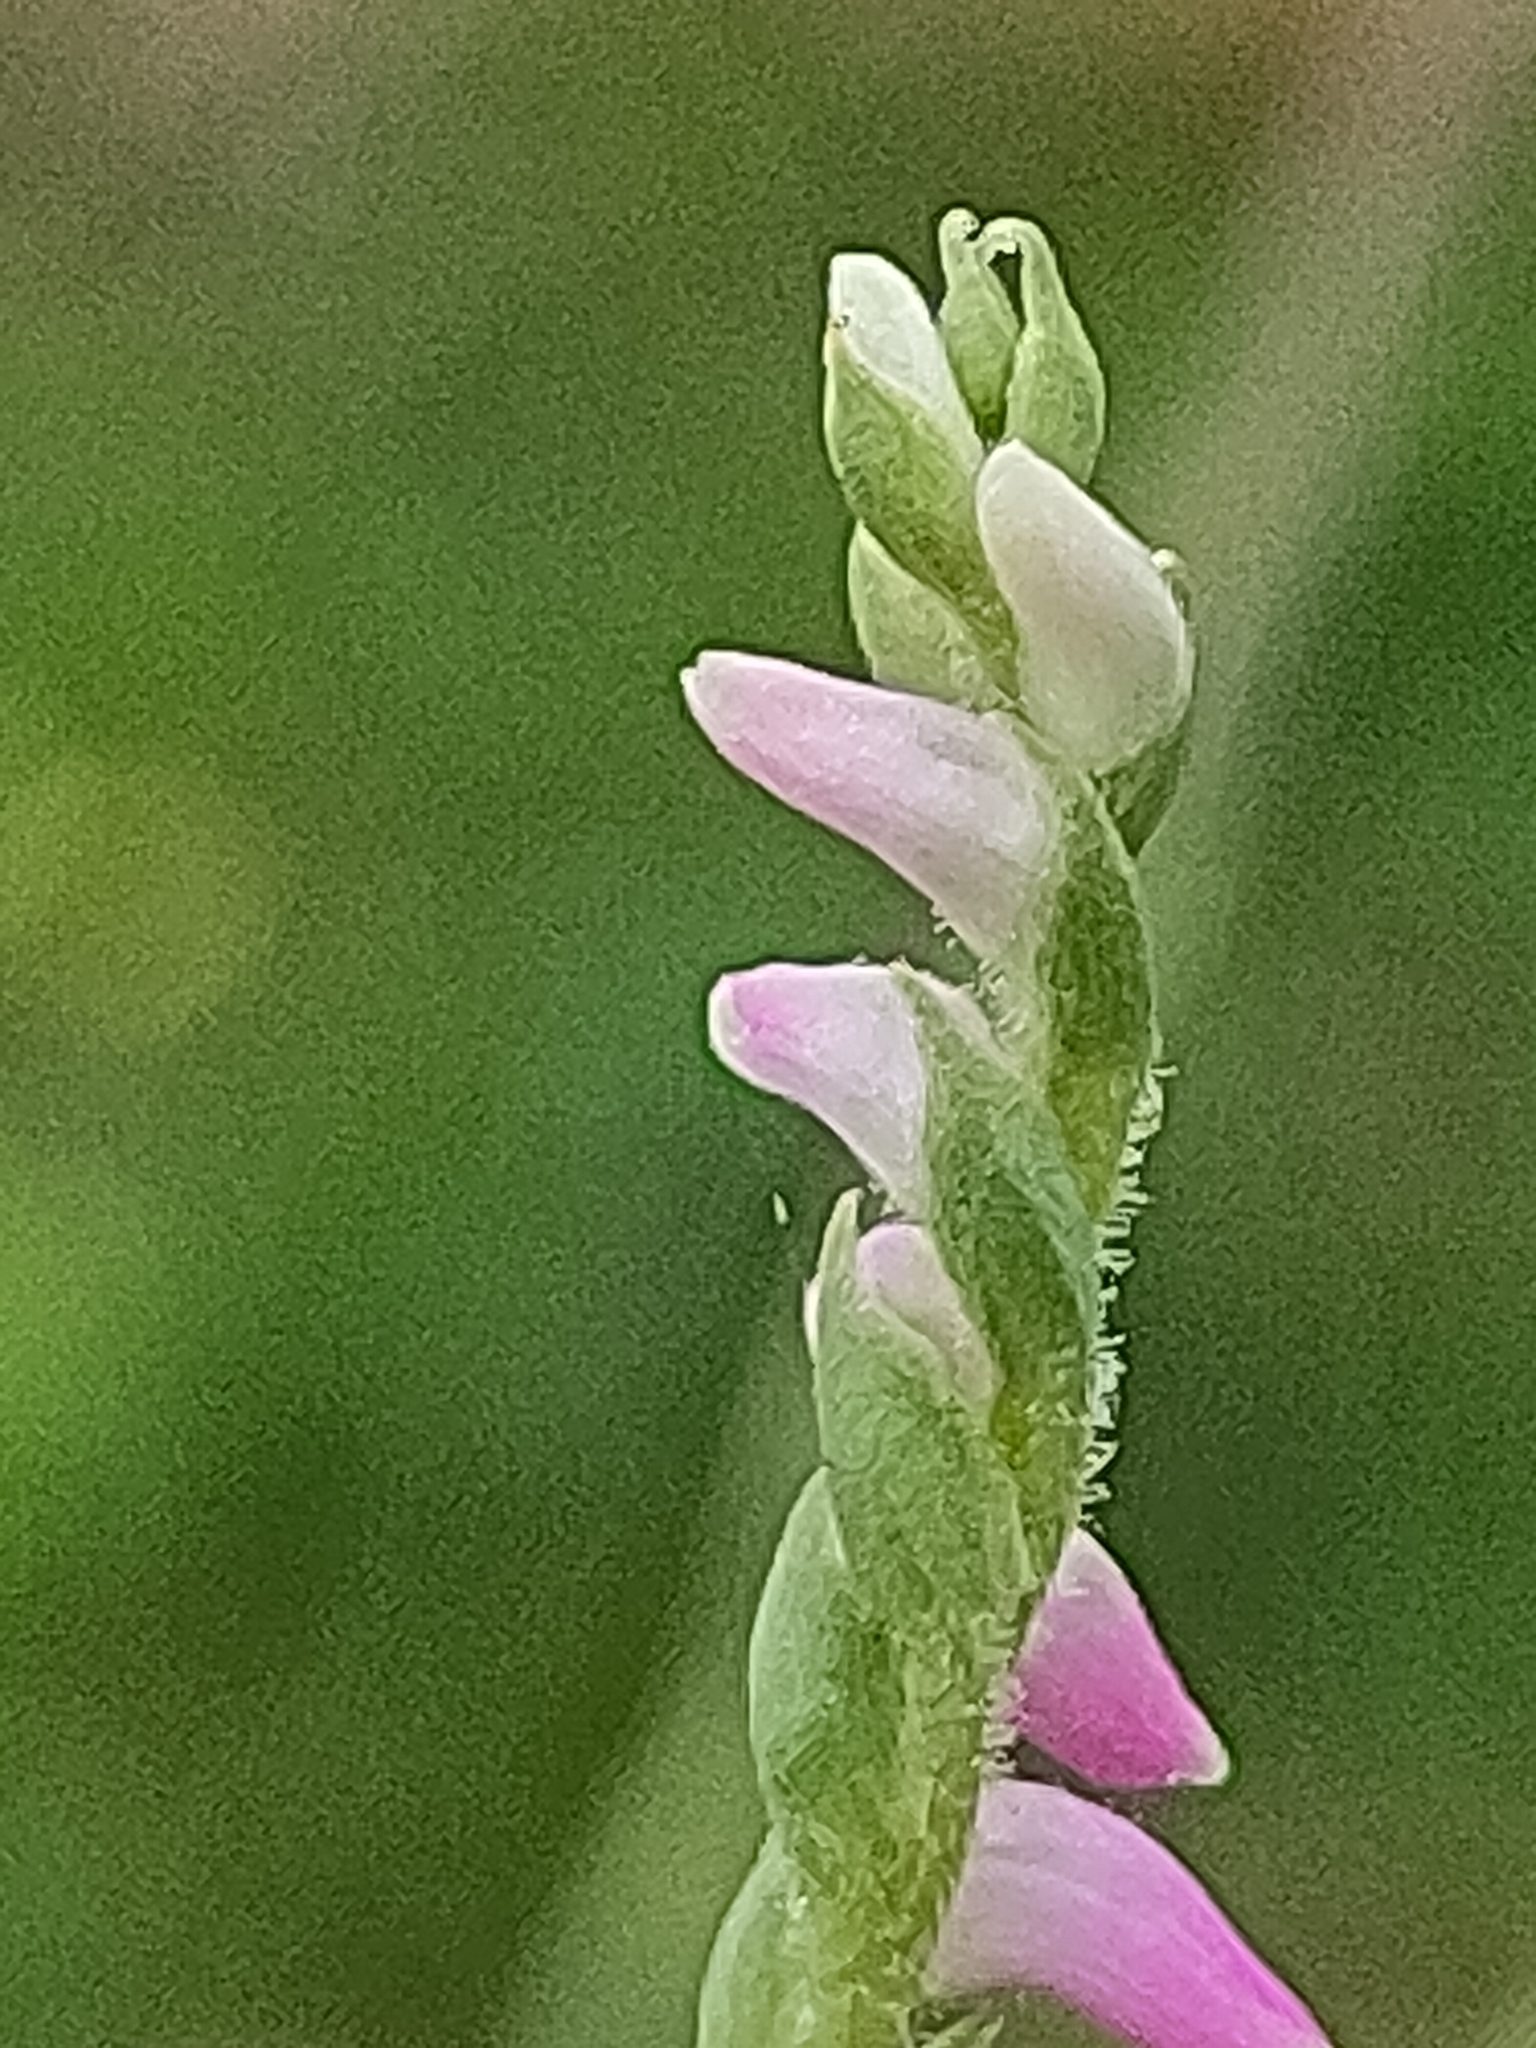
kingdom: Plantae
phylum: Tracheophyta
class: Liliopsida
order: Asparagales
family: Orchidaceae
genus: Spiranthes
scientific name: Spiranthes australis
